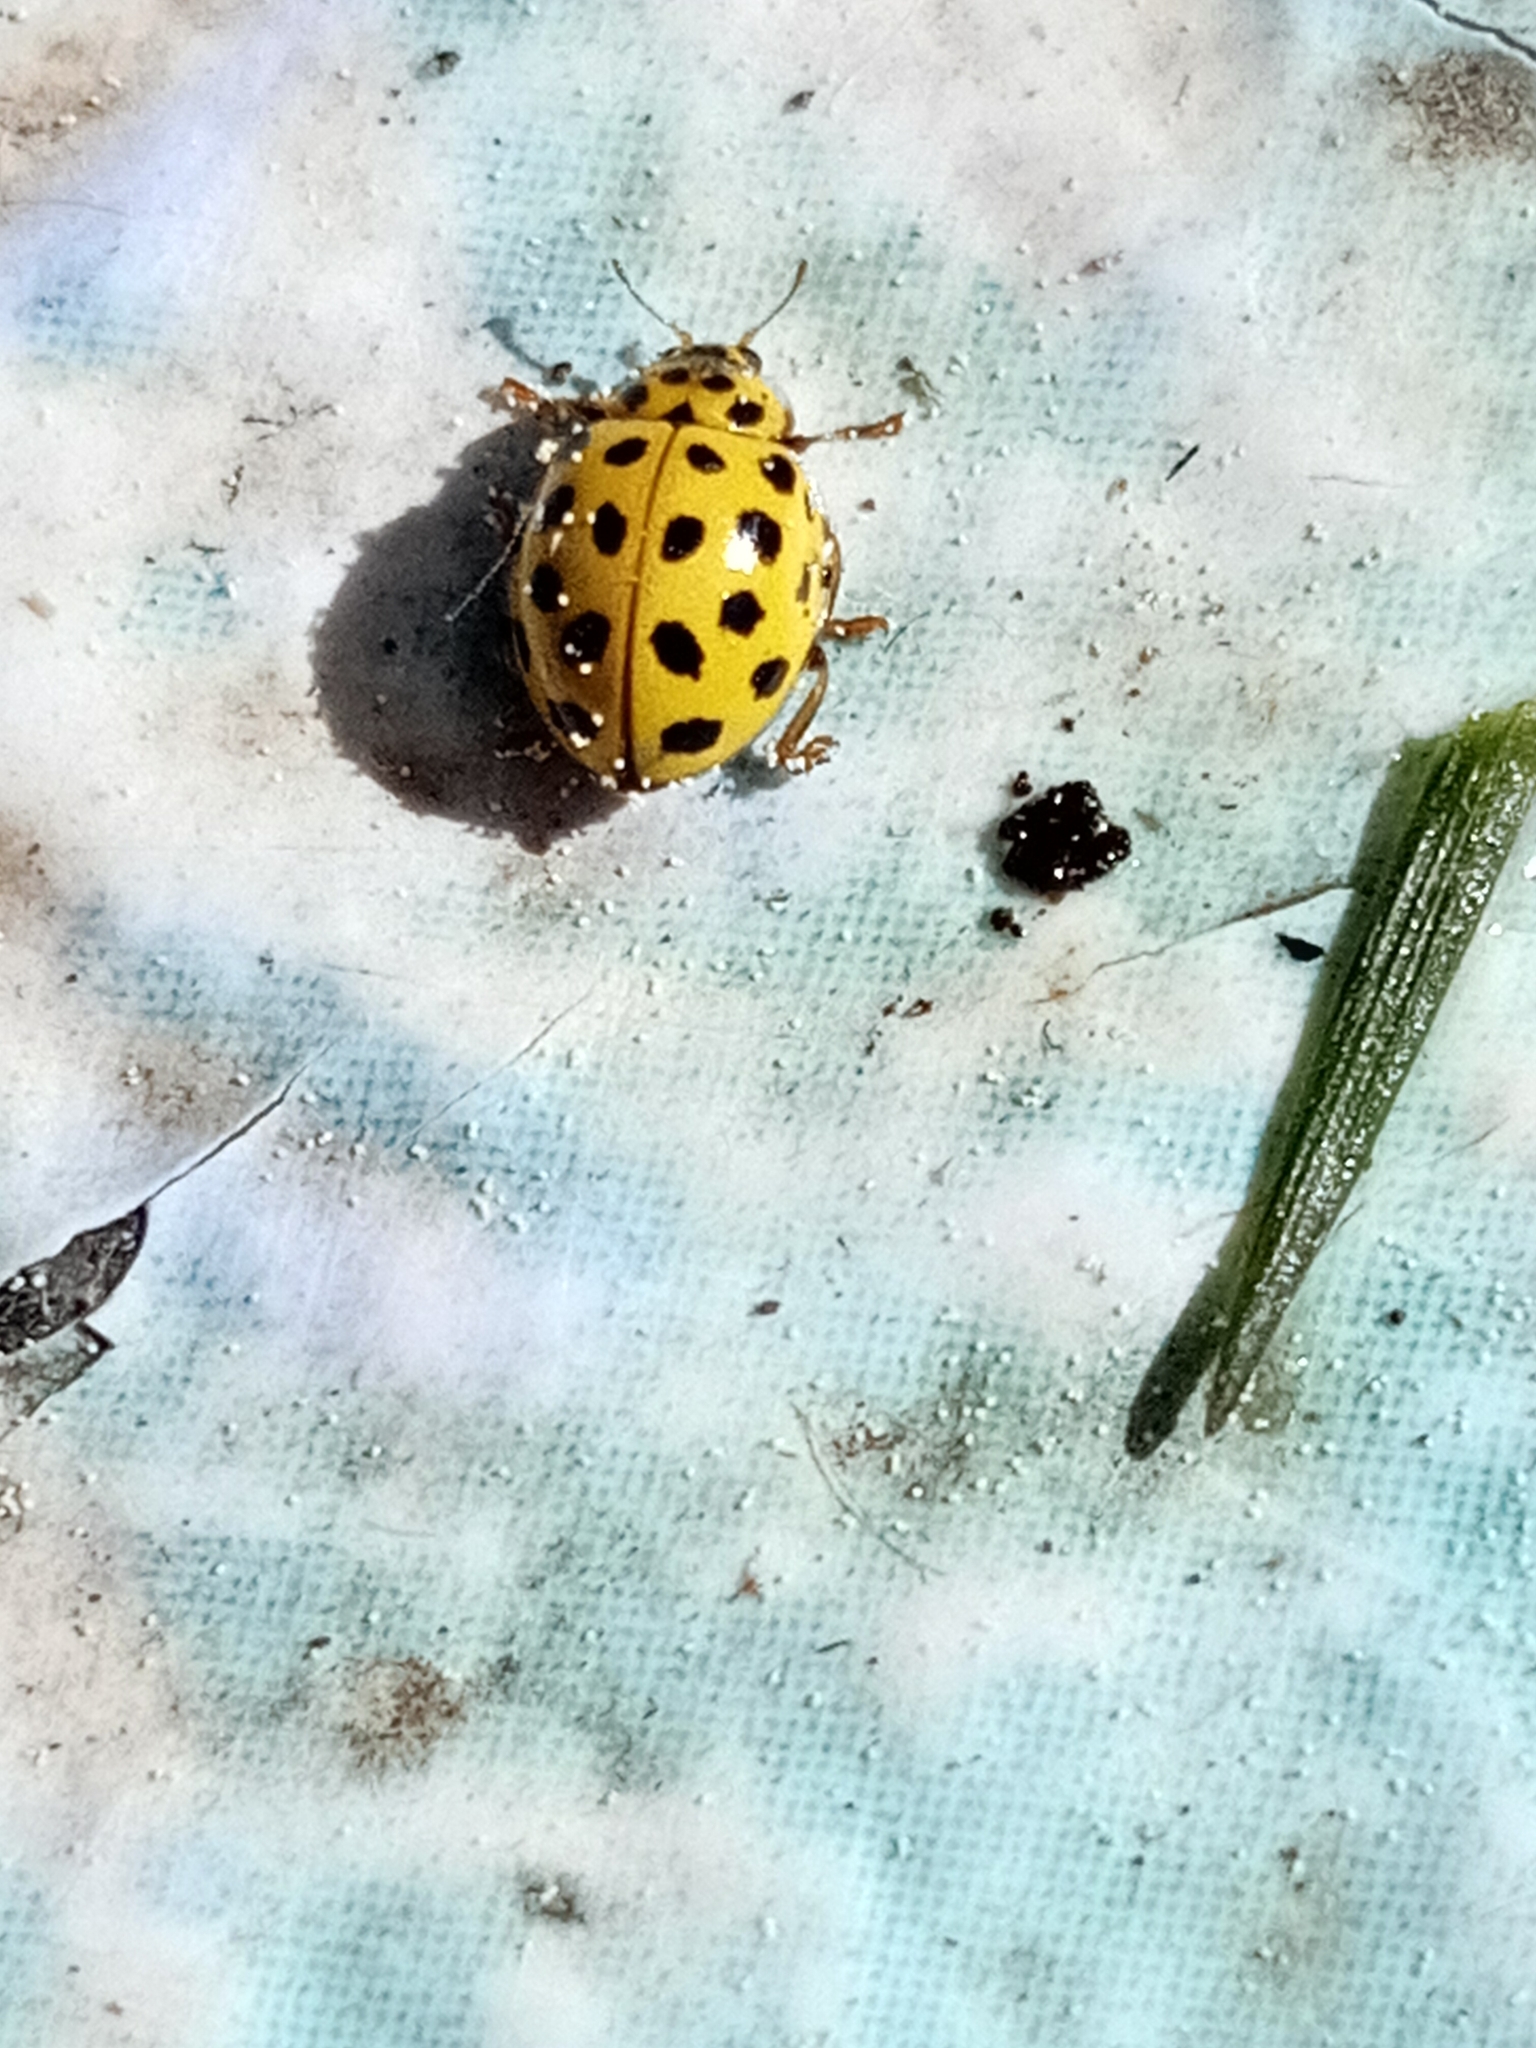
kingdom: Animalia
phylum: Arthropoda
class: Insecta
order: Coleoptera
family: Coccinellidae
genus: Psyllobora
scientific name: Psyllobora vigintiduopunctata
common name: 22-spot ladybird
